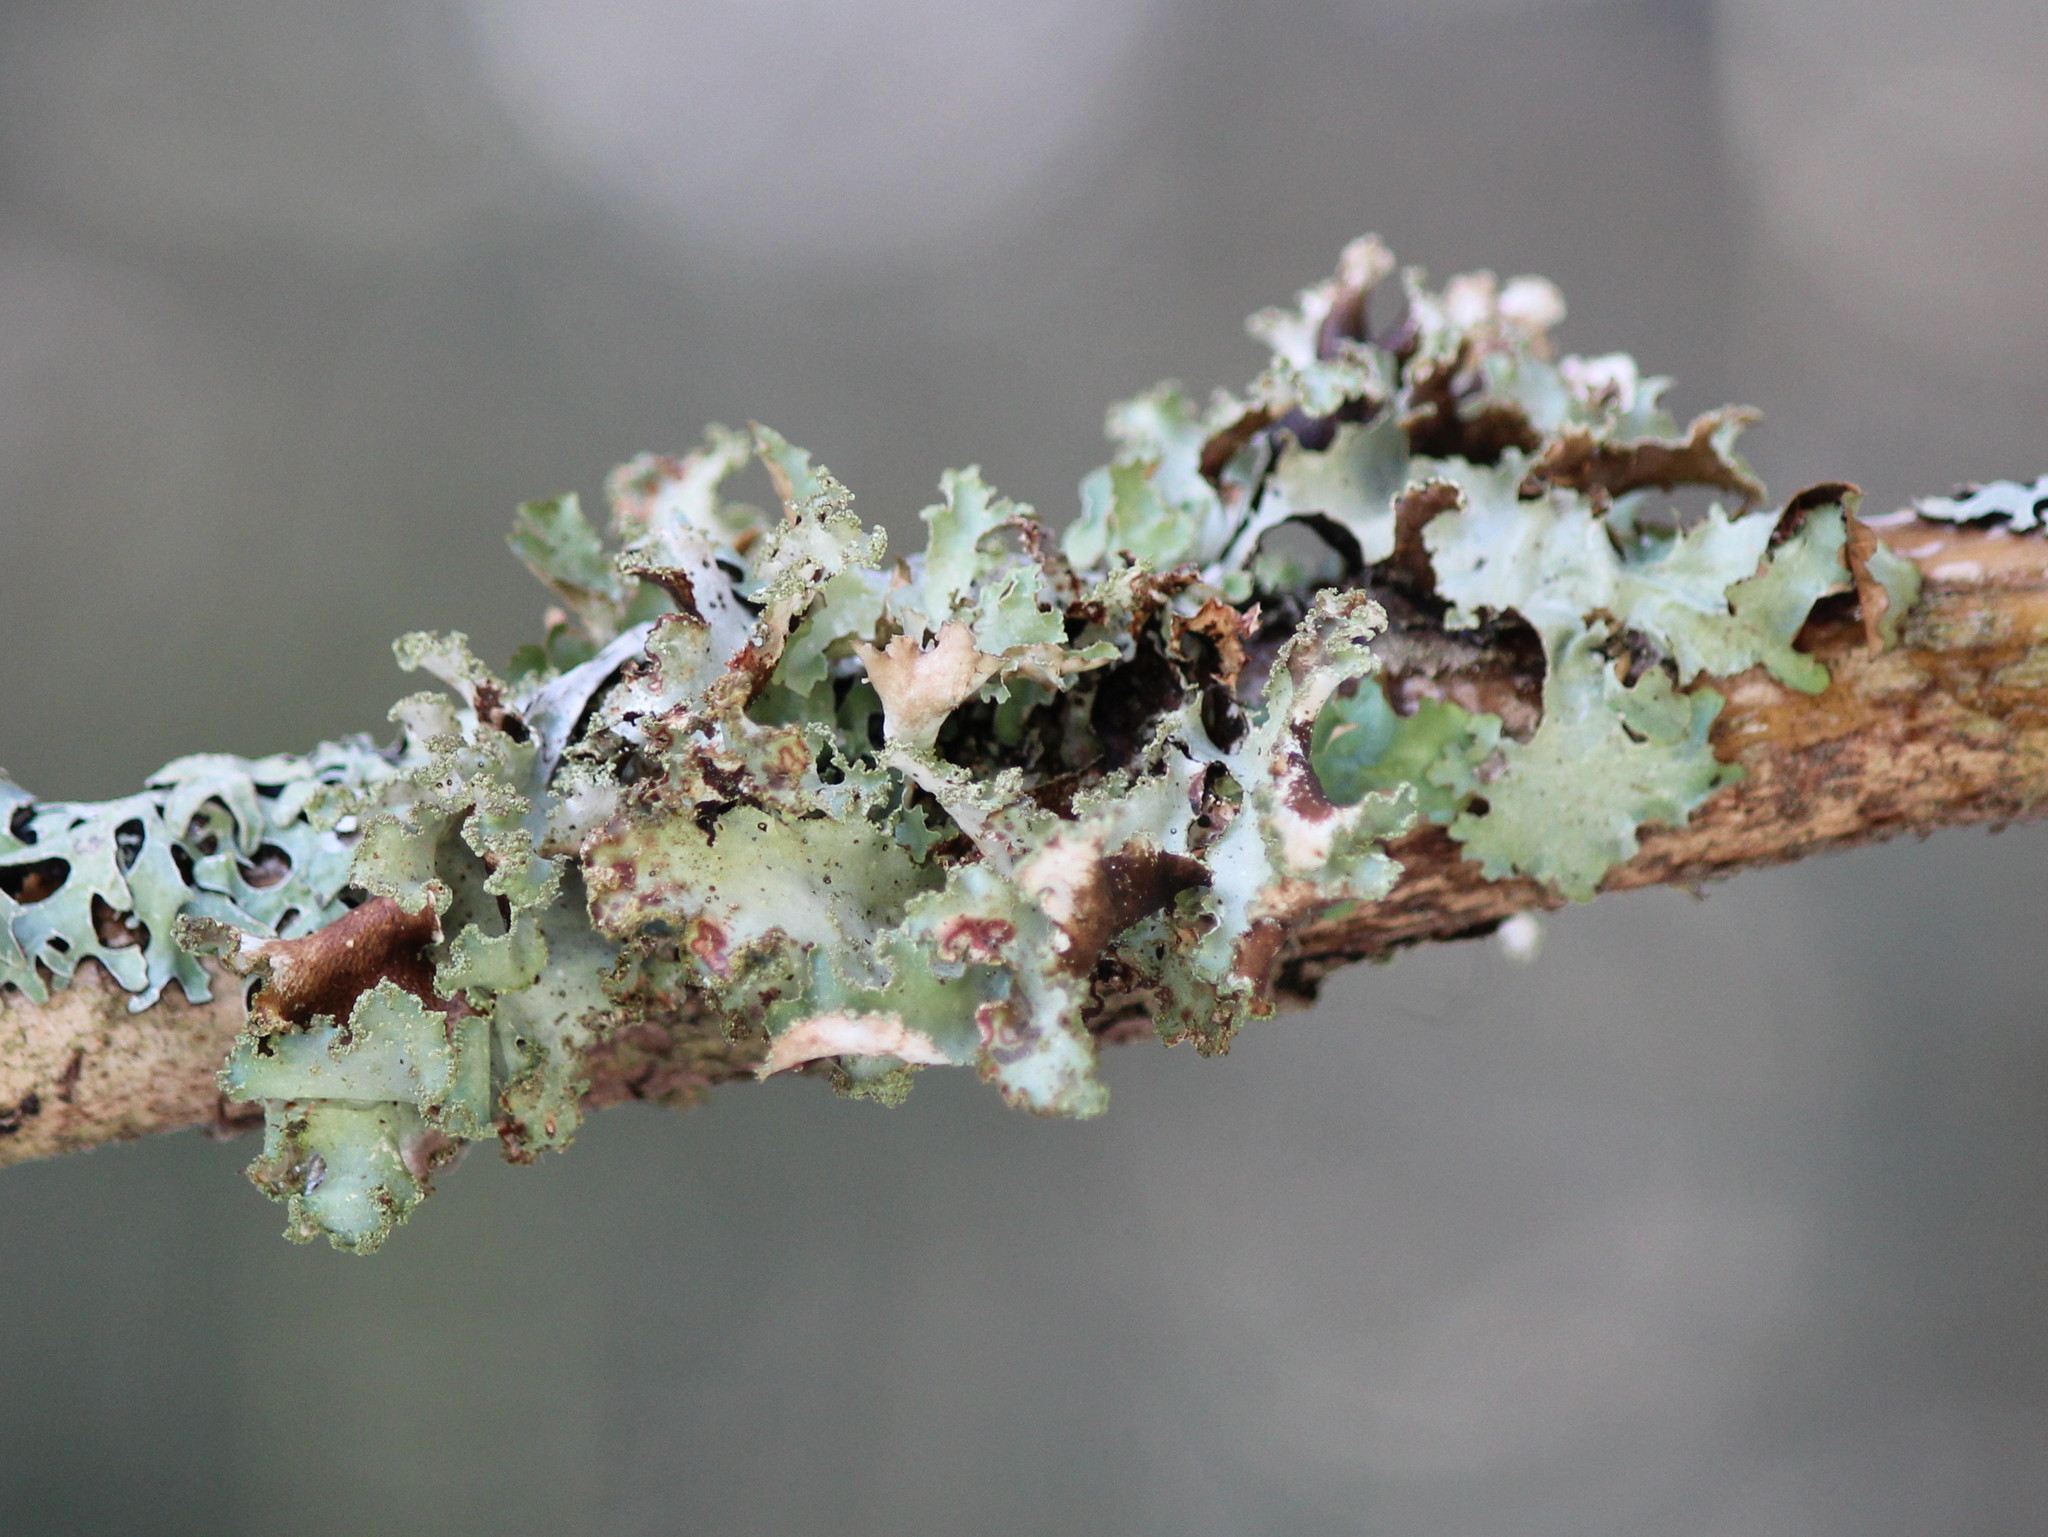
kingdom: Fungi
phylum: Ascomycota
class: Lecanoromycetes
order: Lecanorales
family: Parmeliaceae
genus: Platismatia
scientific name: Platismatia glauca
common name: Varied rag lichen
